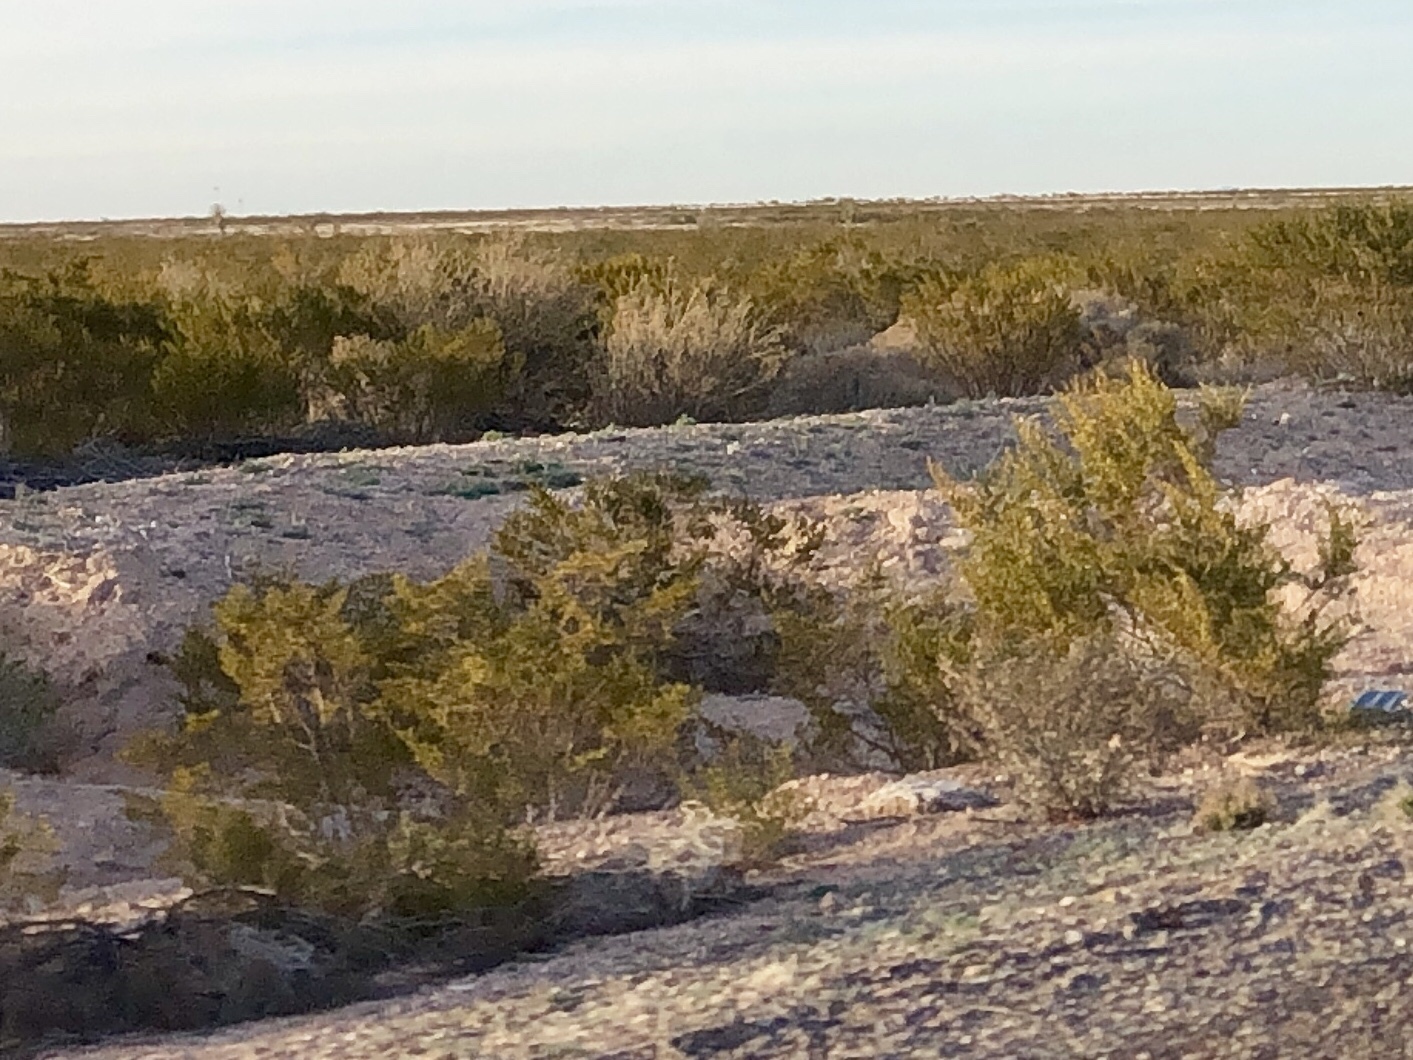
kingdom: Plantae
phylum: Tracheophyta
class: Magnoliopsida
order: Zygophyllales
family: Zygophyllaceae
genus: Larrea
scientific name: Larrea tridentata
